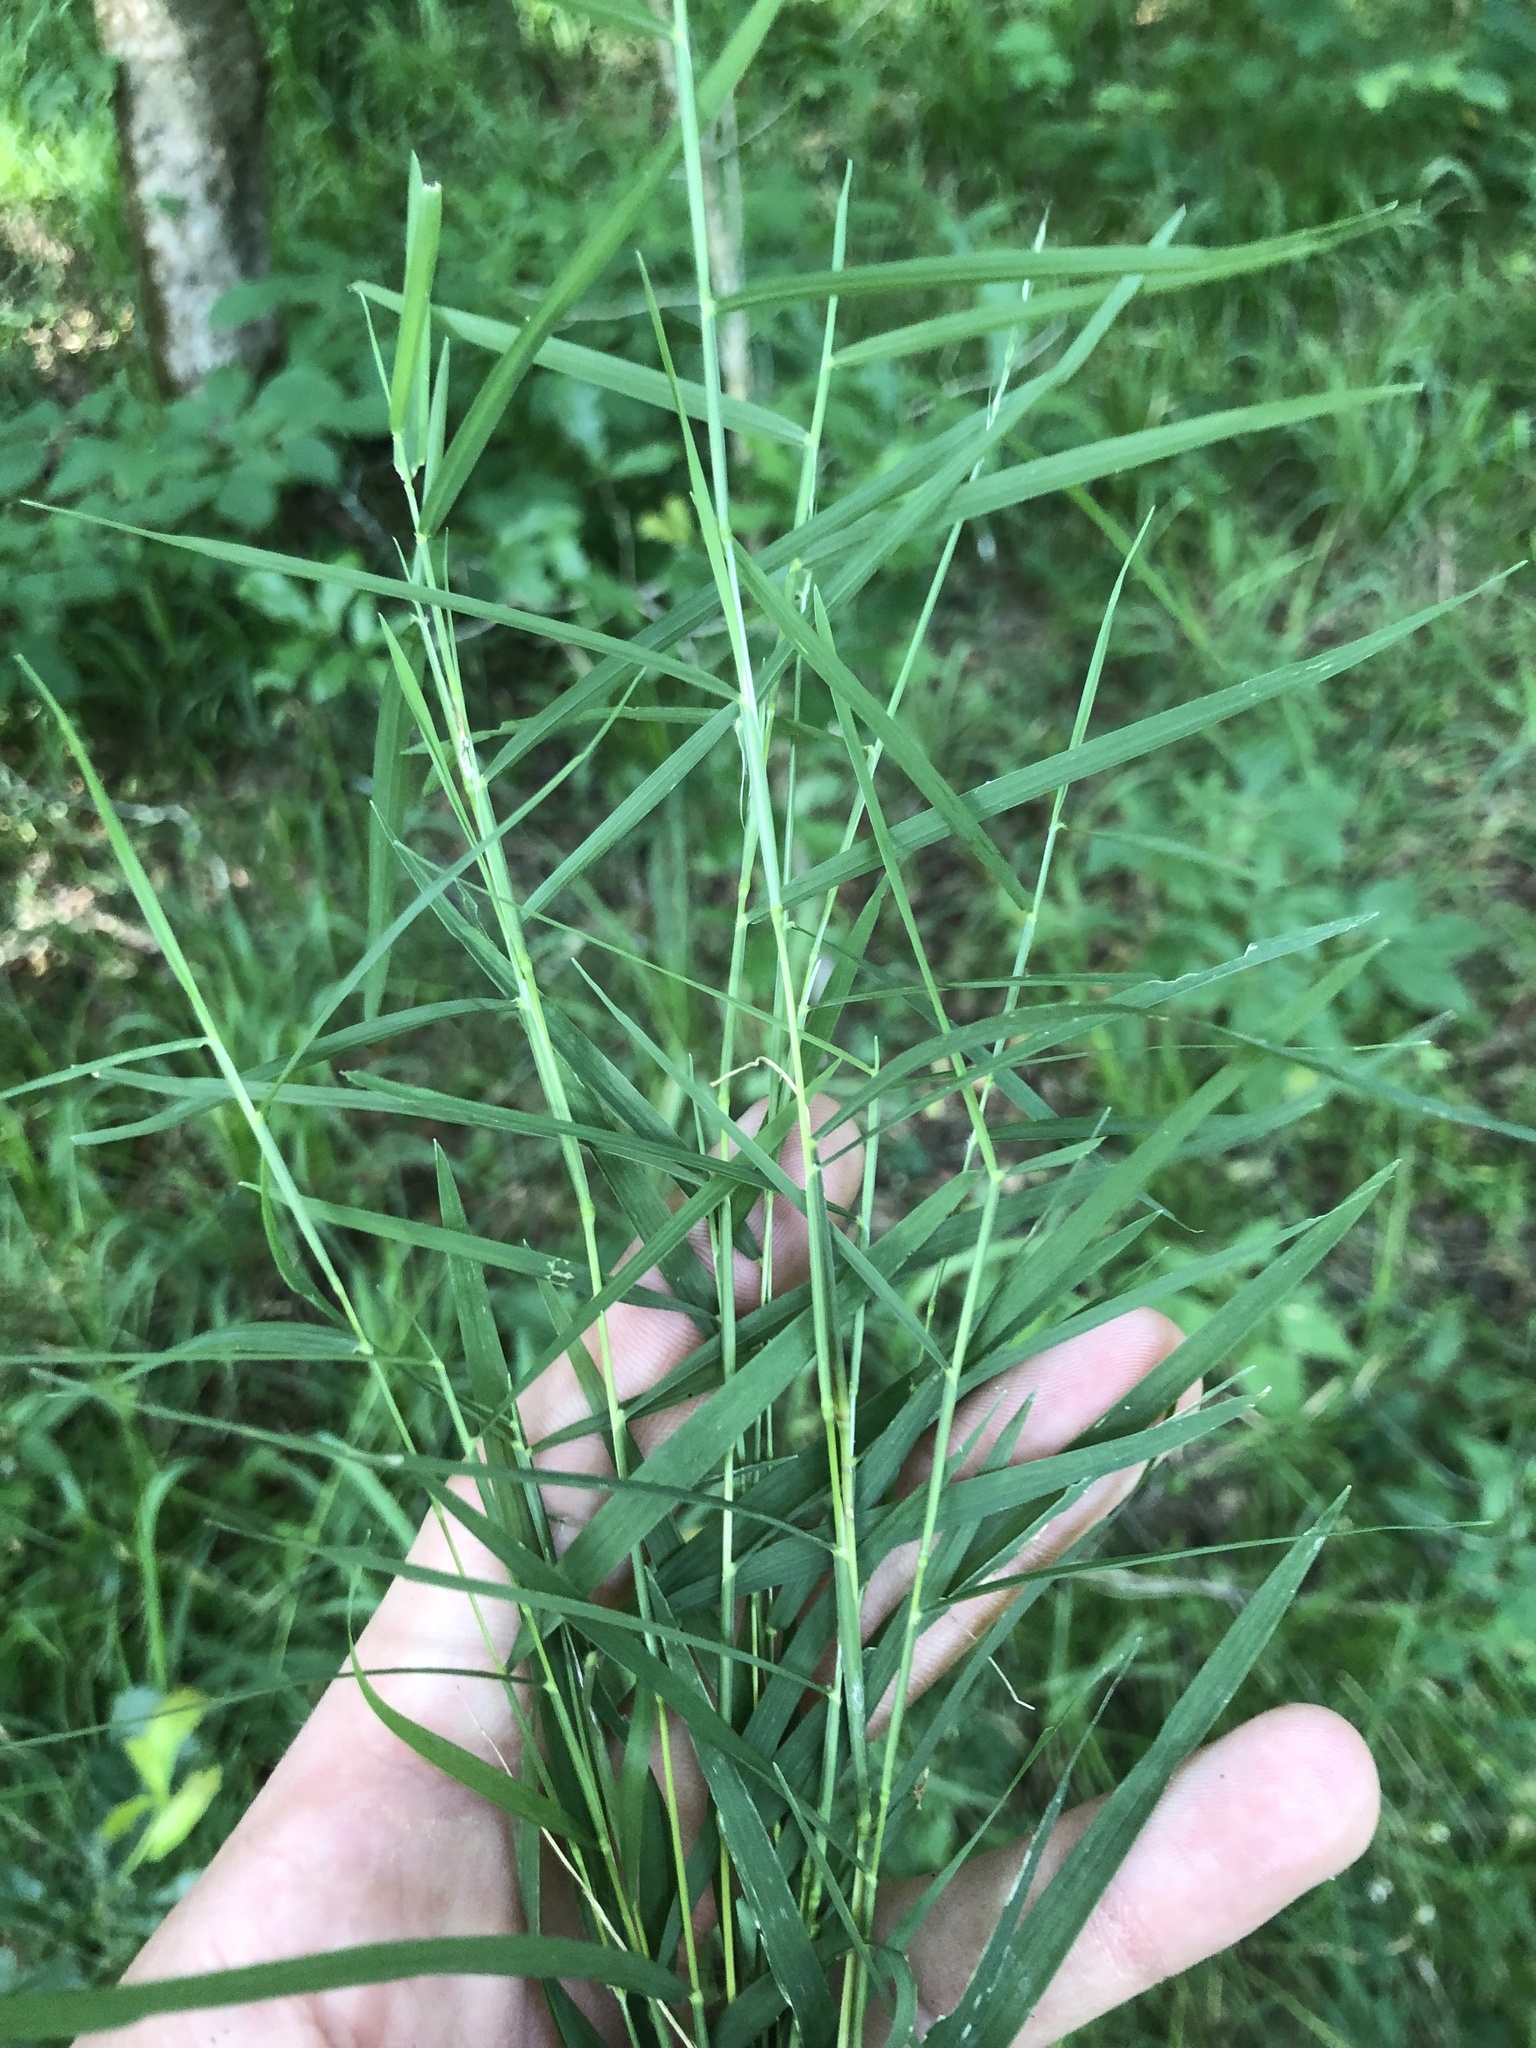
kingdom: Plantae
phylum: Tracheophyta
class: Liliopsida
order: Poales
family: Poaceae
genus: Muhlenbergia
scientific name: Muhlenbergia schreberi
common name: Nimblewill
